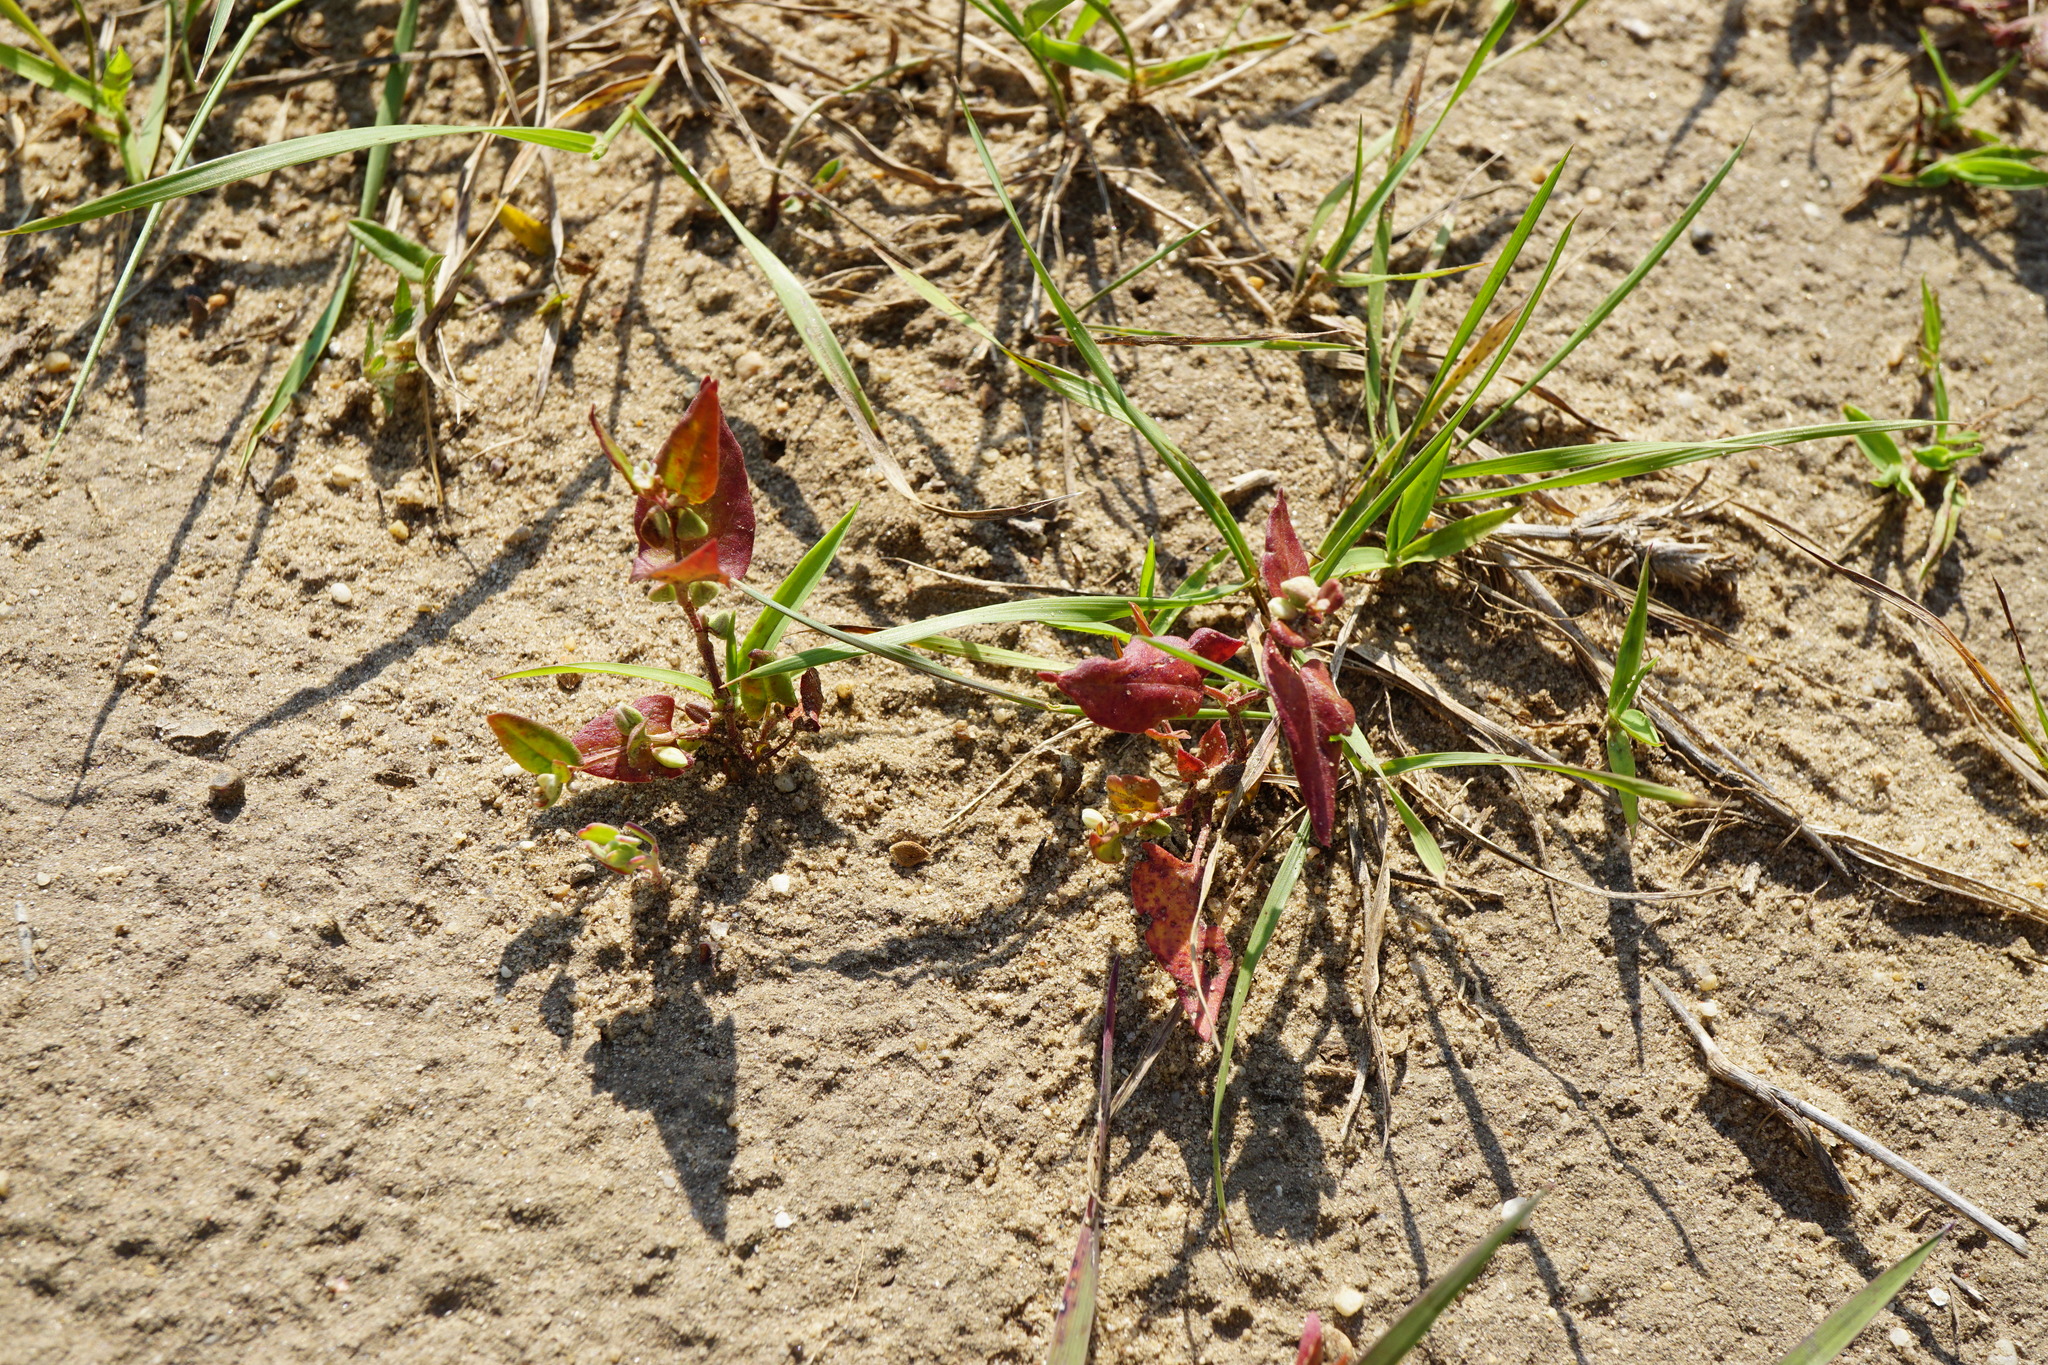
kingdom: Plantae
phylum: Tracheophyta
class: Magnoliopsida
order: Caryophyllales
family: Polygonaceae
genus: Fallopia
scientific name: Fallopia convolvulus
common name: Black bindweed
